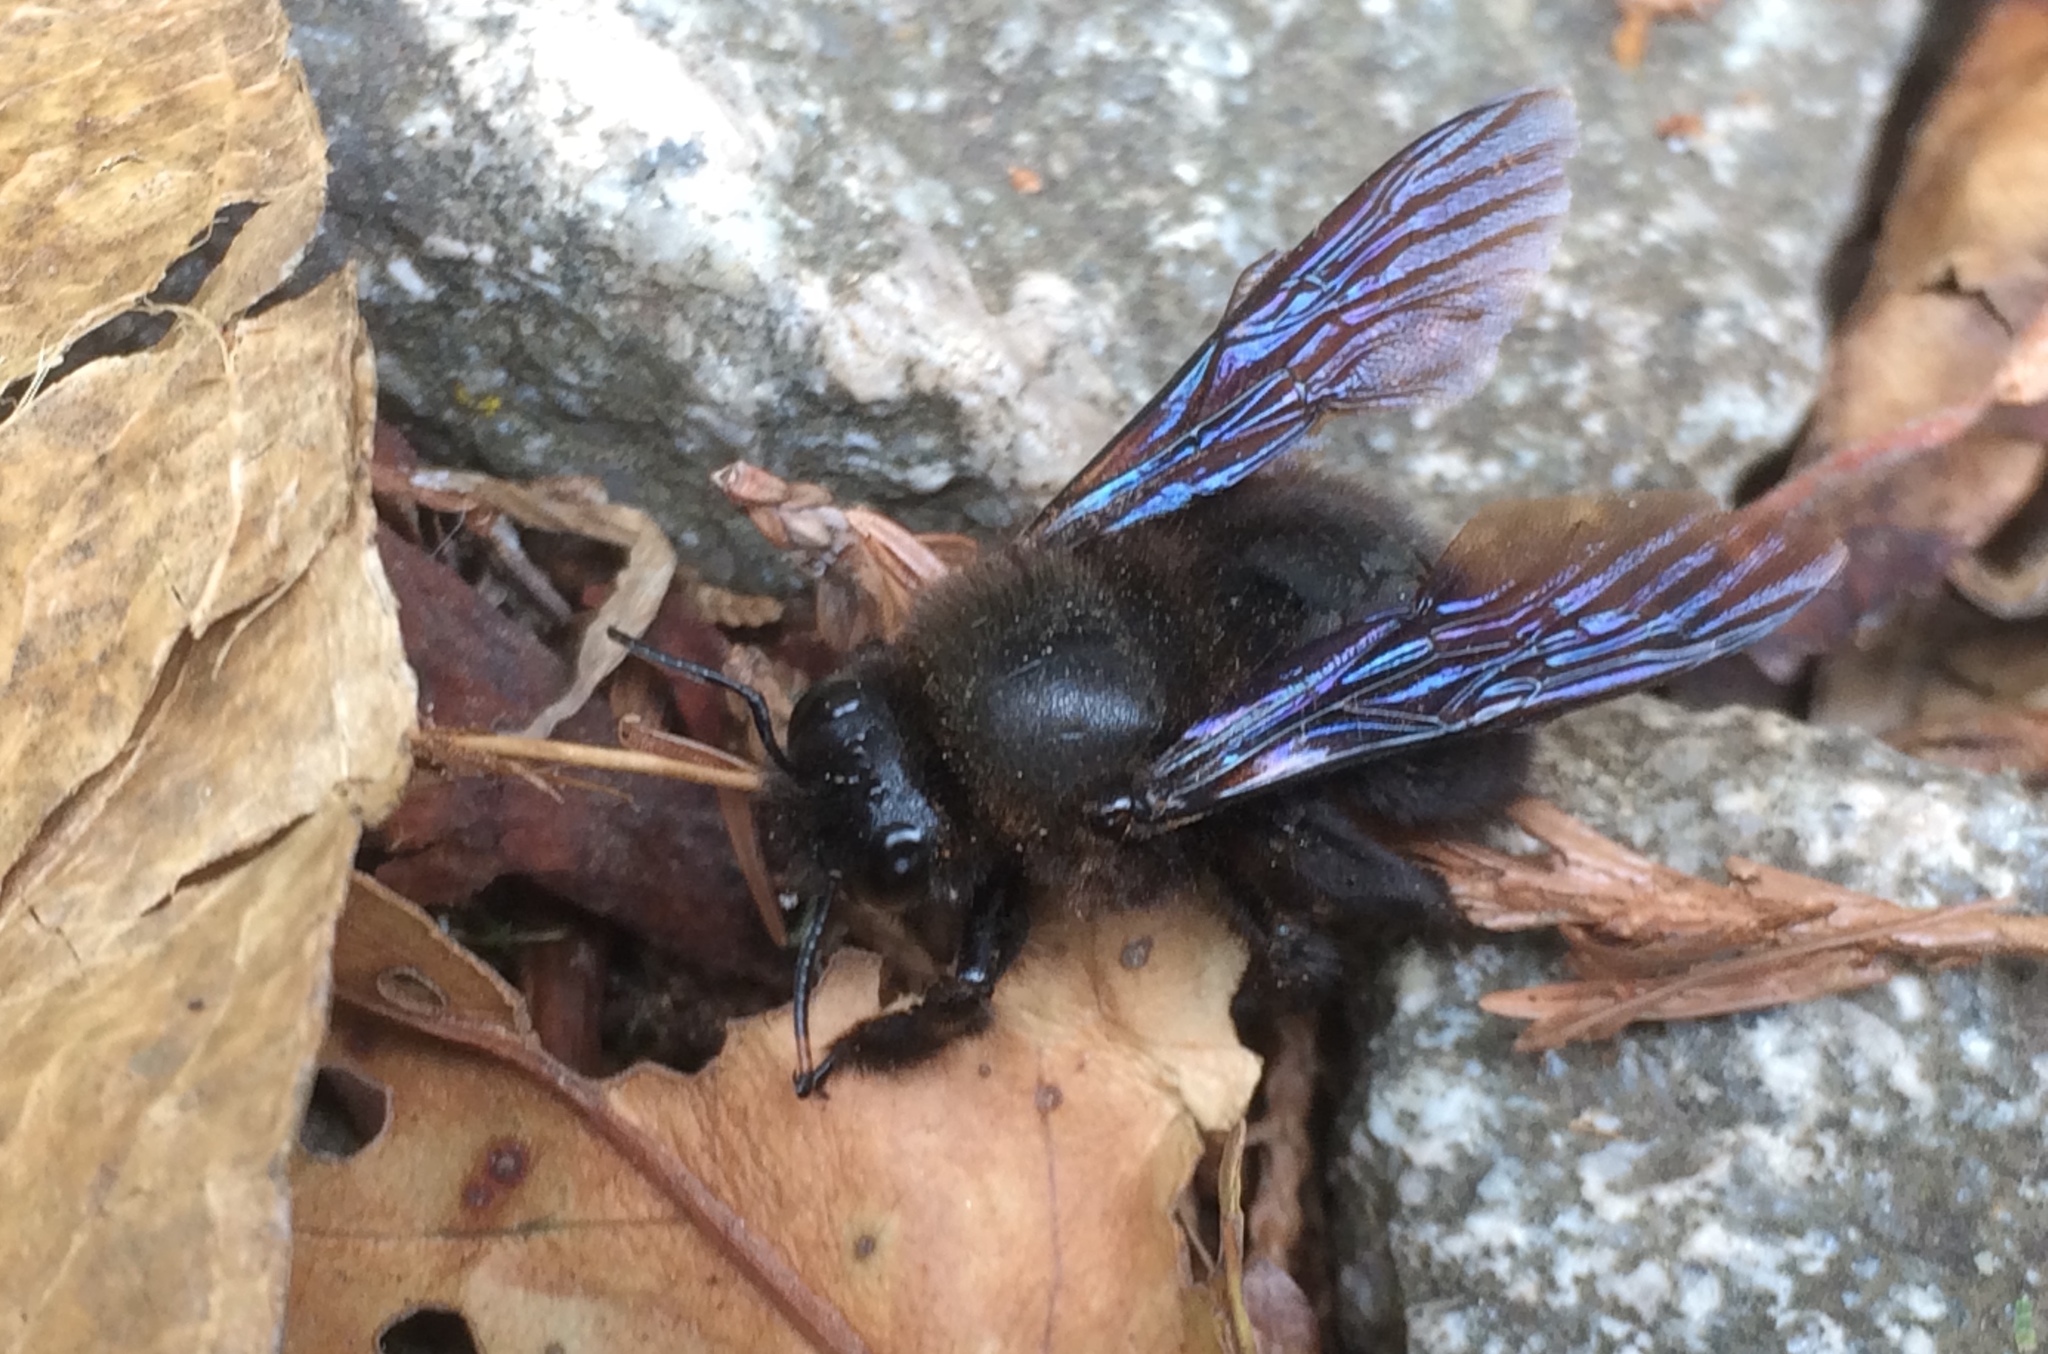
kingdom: Animalia
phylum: Arthropoda
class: Insecta
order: Hymenoptera
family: Apidae
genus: Xylocopa
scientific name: Xylocopa violacea
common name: Violet carpenter bee
